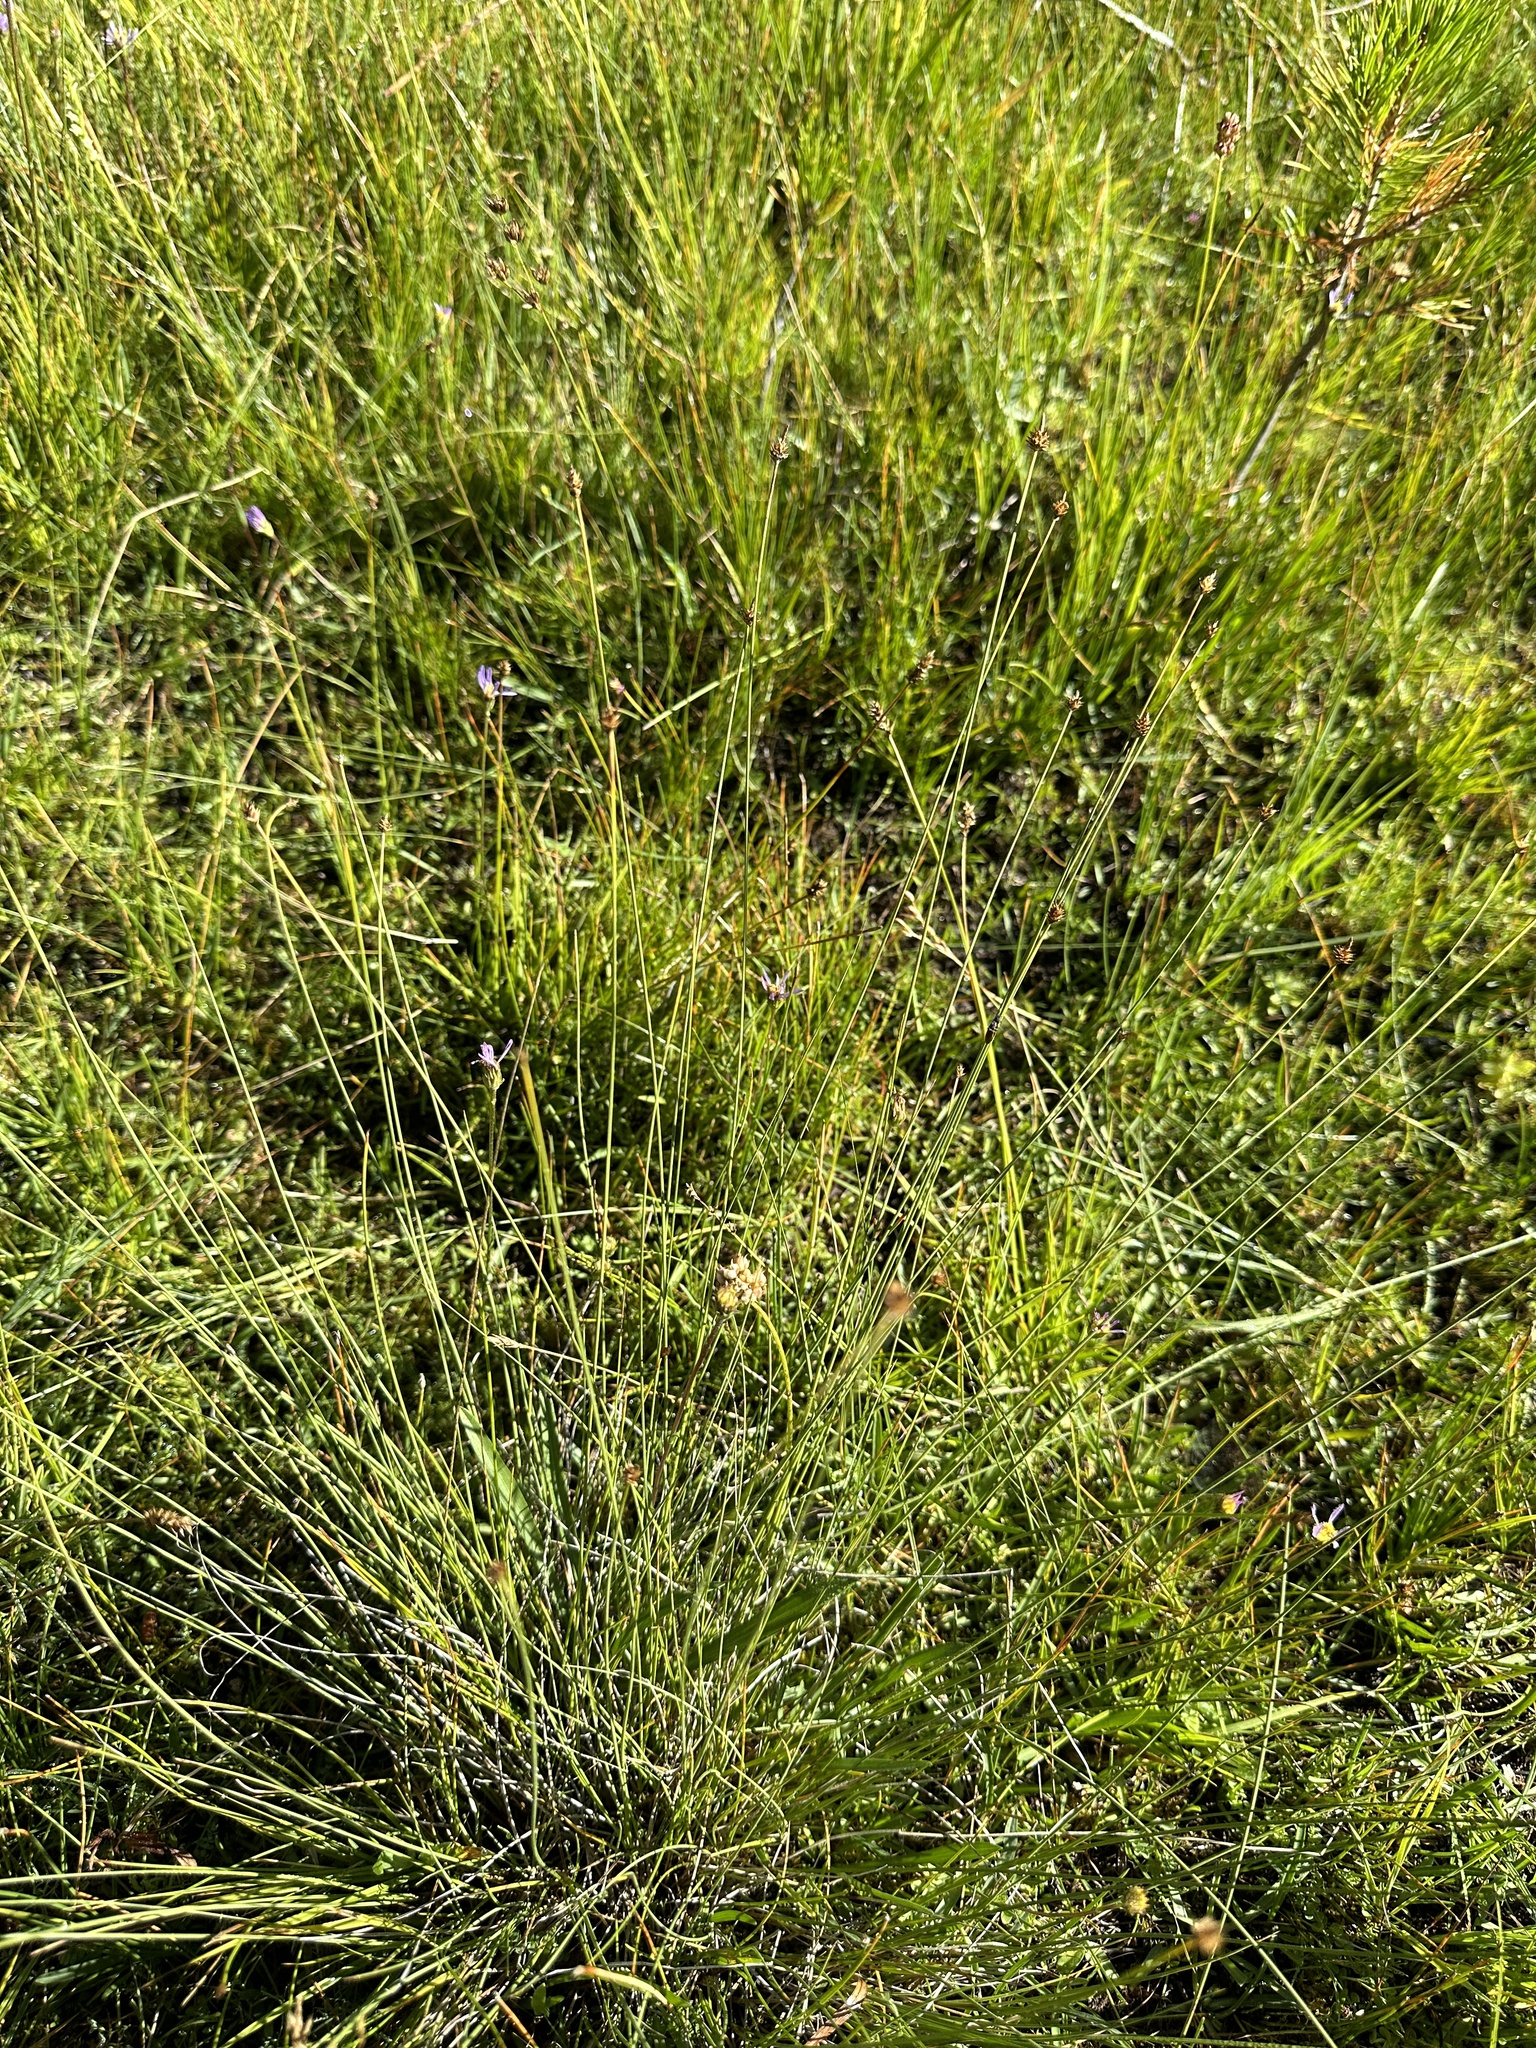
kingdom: Plantae
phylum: Tracheophyta
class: Liliopsida
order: Poales
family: Cyperaceae
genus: Carex
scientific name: Carex capitata
